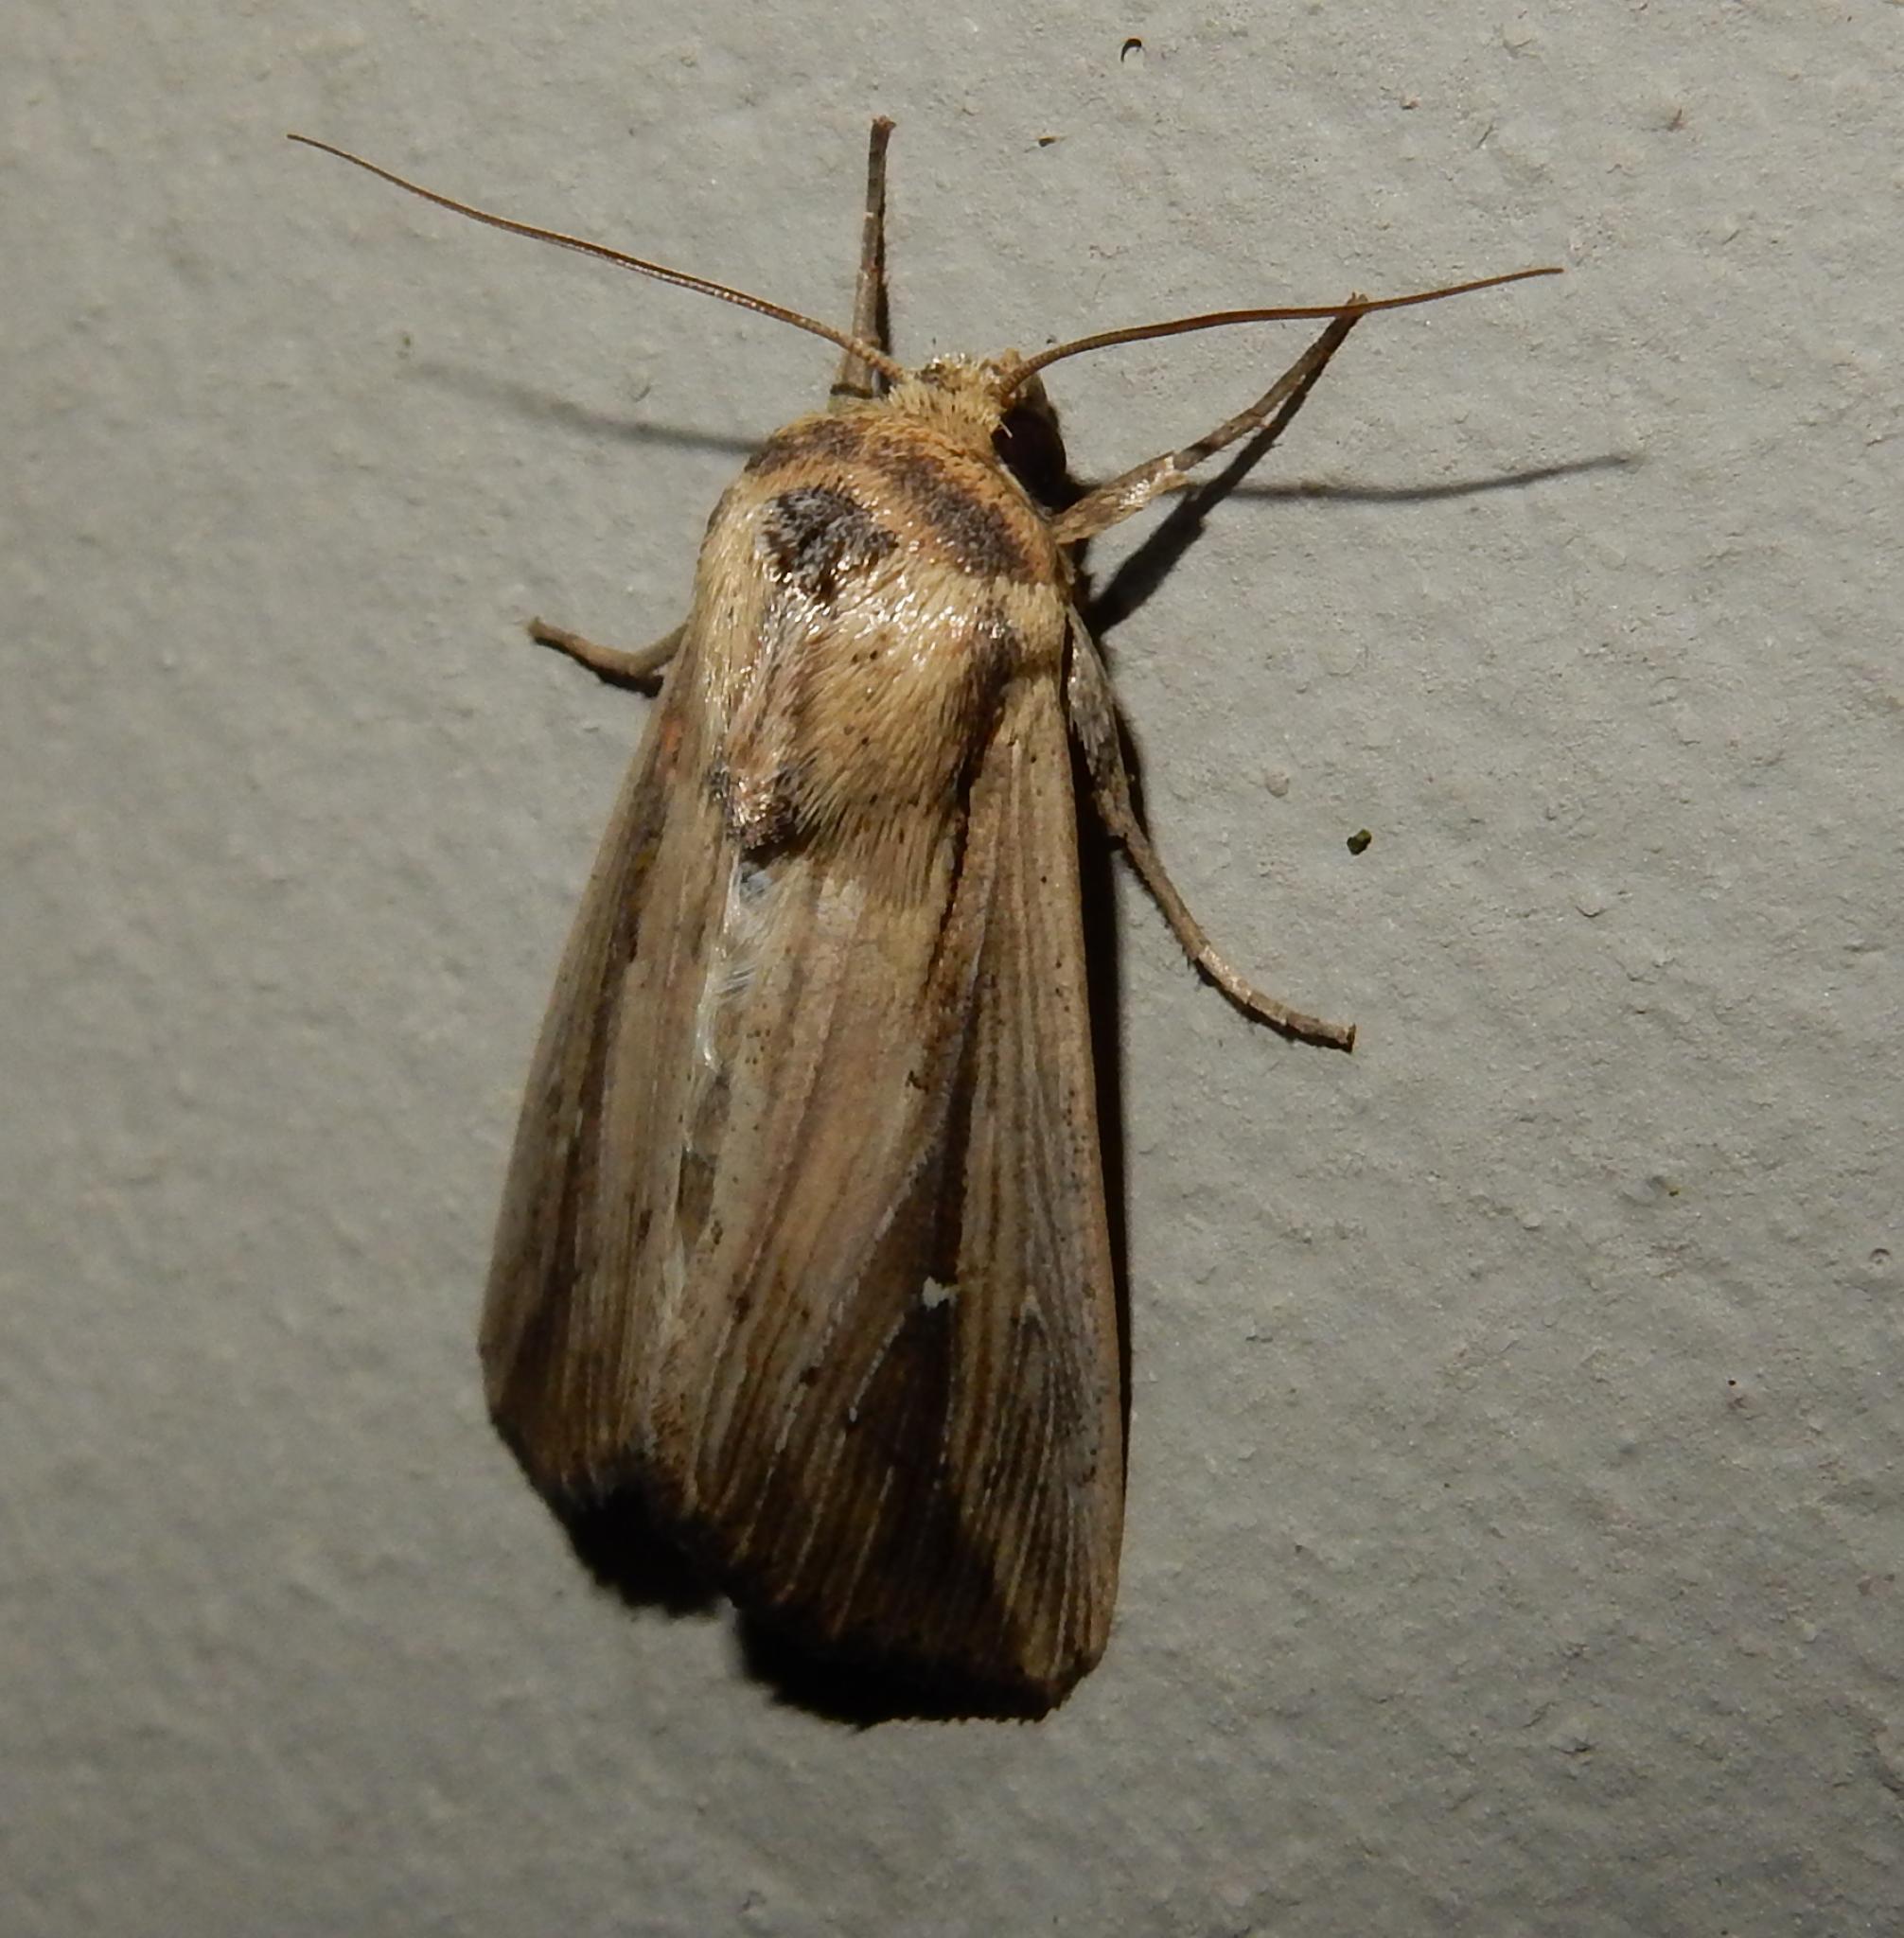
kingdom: Animalia
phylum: Arthropoda
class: Insecta
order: Lepidoptera
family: Noctuidae
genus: Leucania
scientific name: Leucania loreyi
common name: The cosmopolitan
